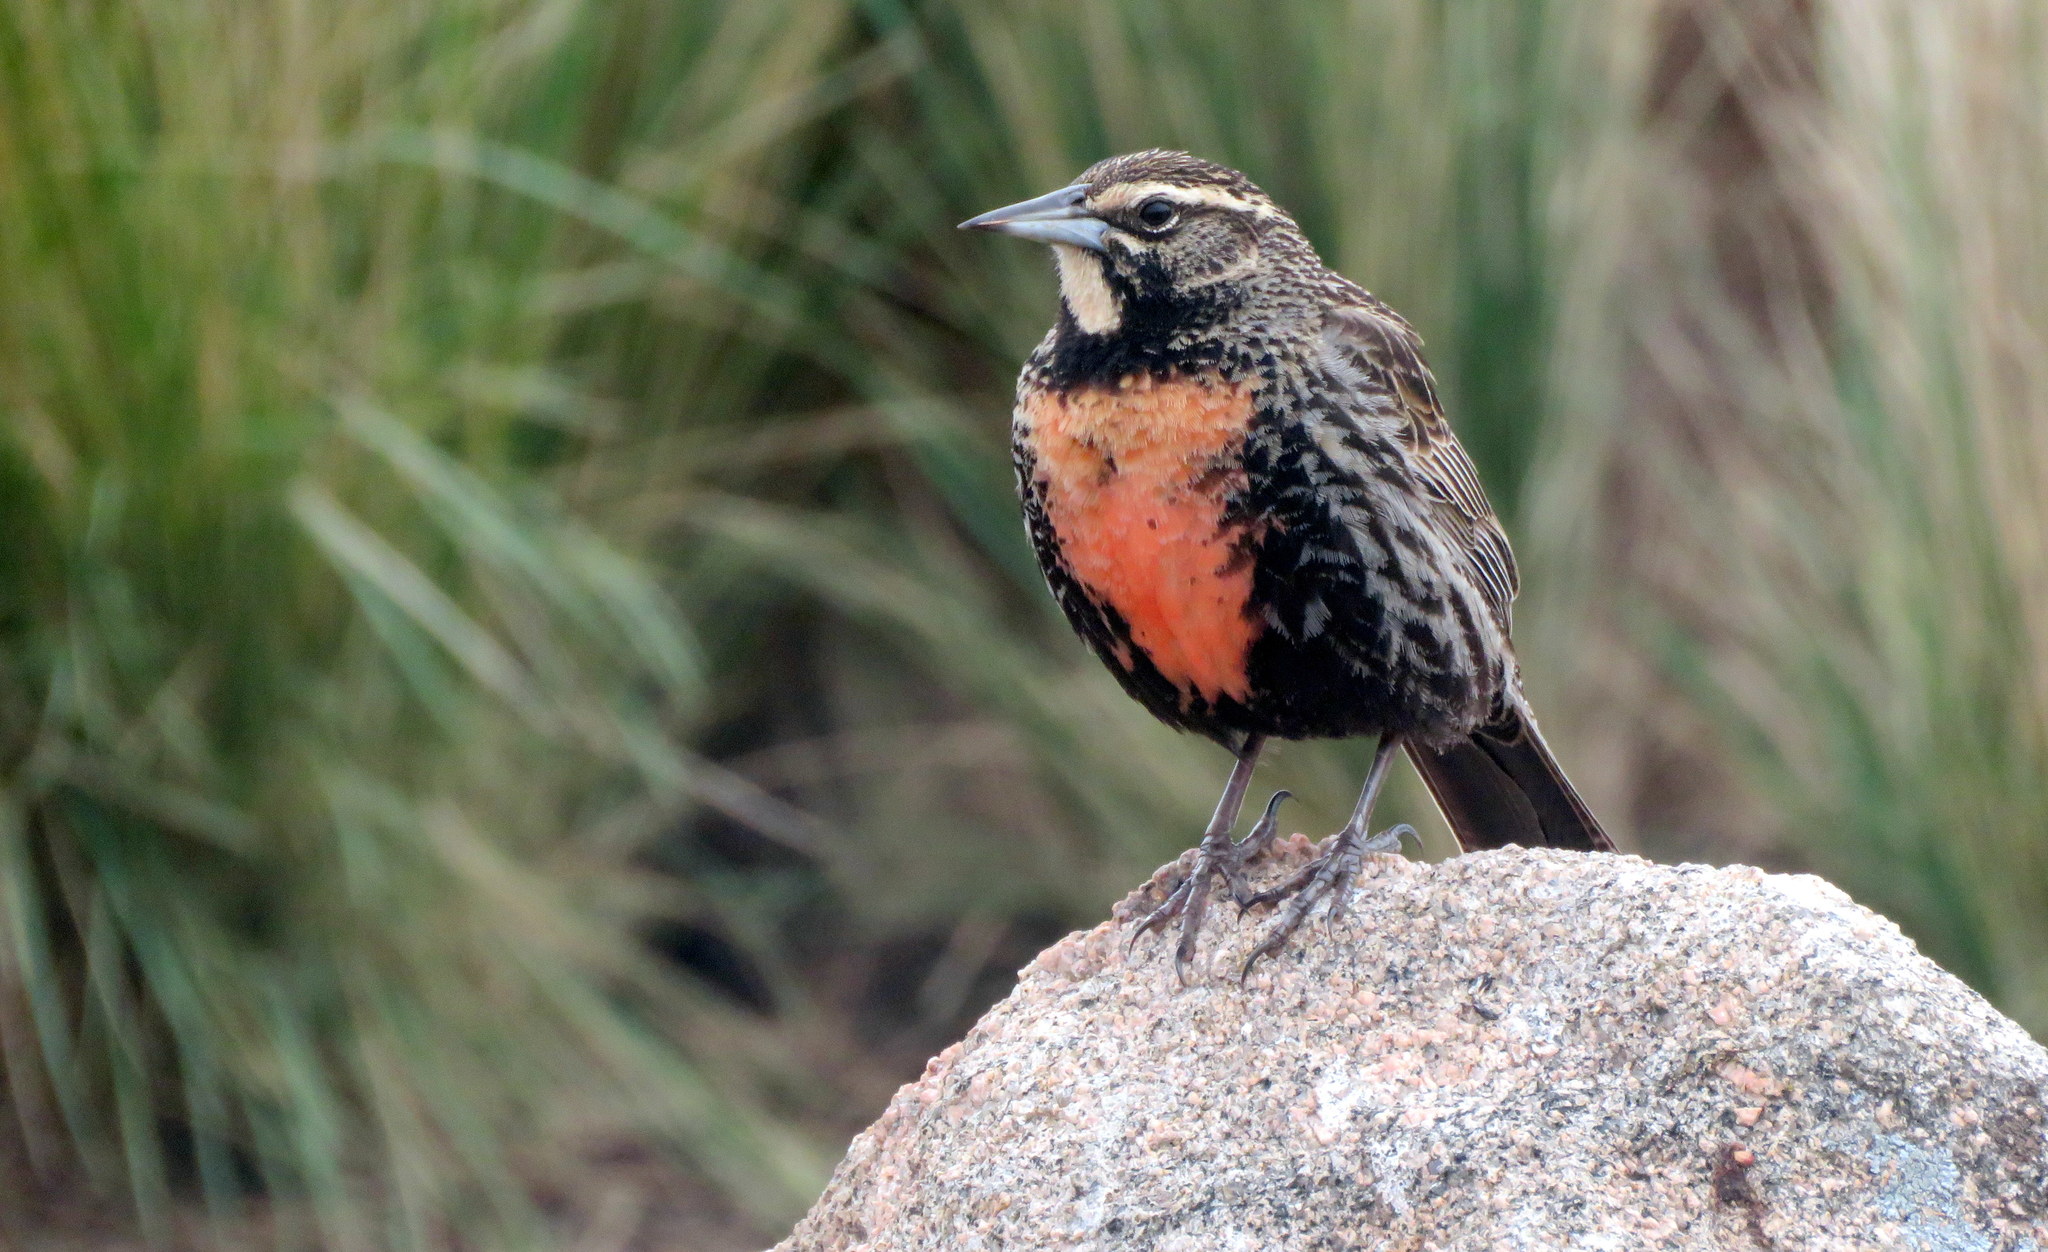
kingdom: Animalia
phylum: Chordata
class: Aves
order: Passeriformes
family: Icteridae
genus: Sturnella
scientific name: Sturnella loyca
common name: Long-tailed meadowlark
